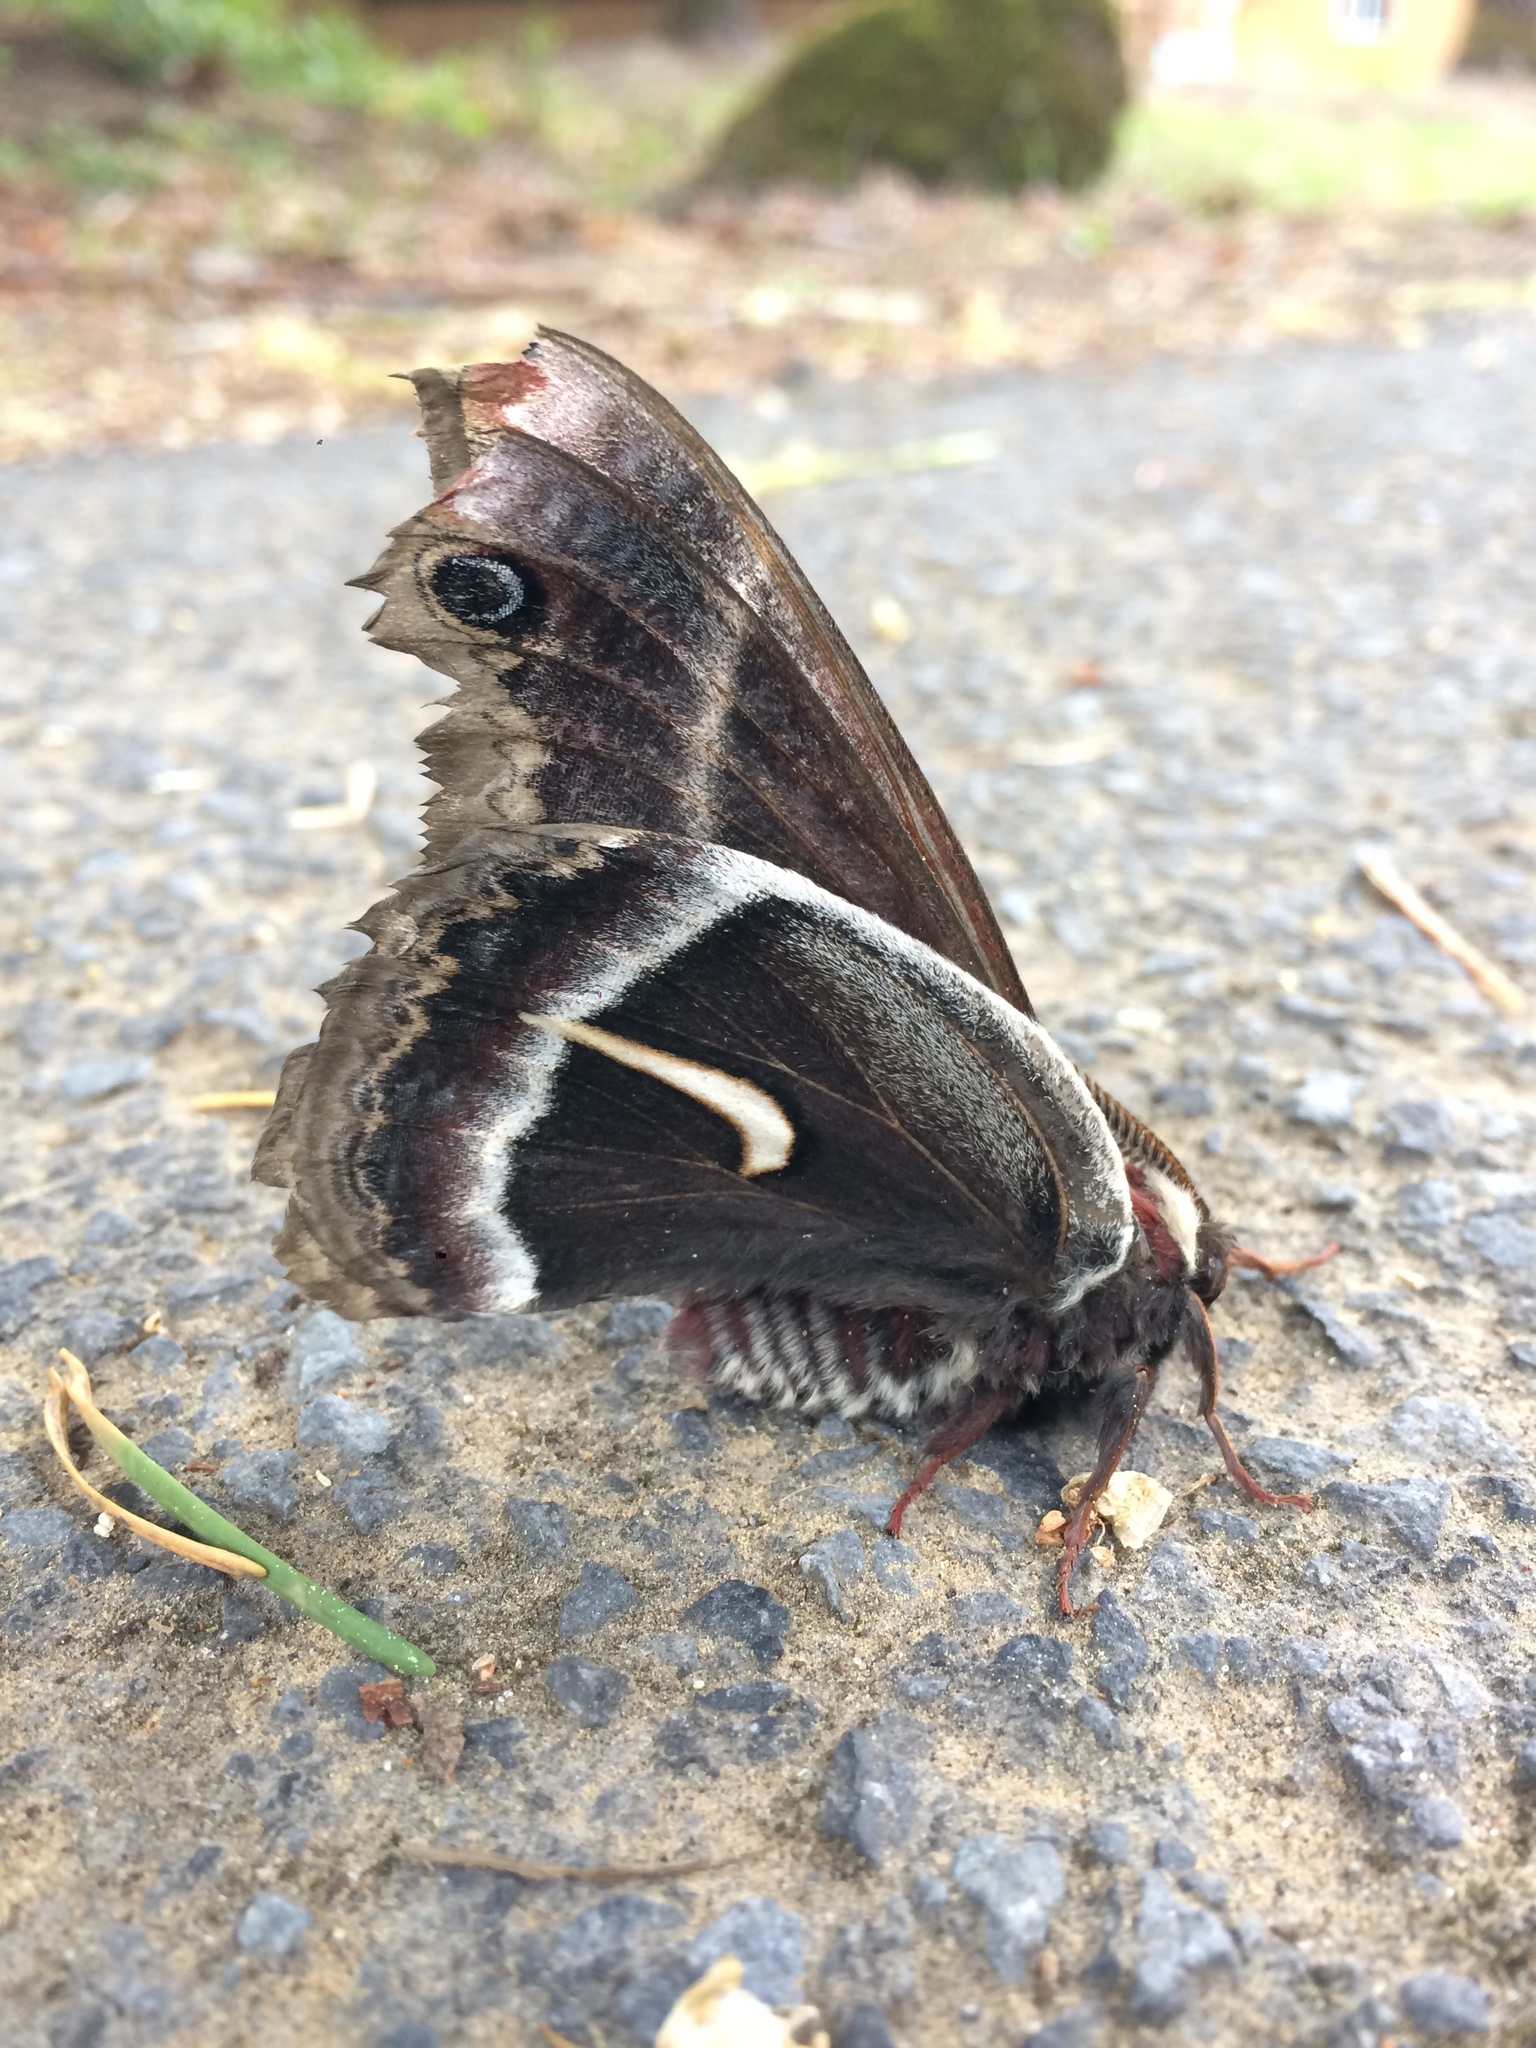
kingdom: Animalia
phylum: Arthropoda
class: Insecta
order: Lepidoptera
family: Saturniidae
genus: Hyalophora
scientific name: Hyalophora euryalus
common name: Ceanothus silkmoth
